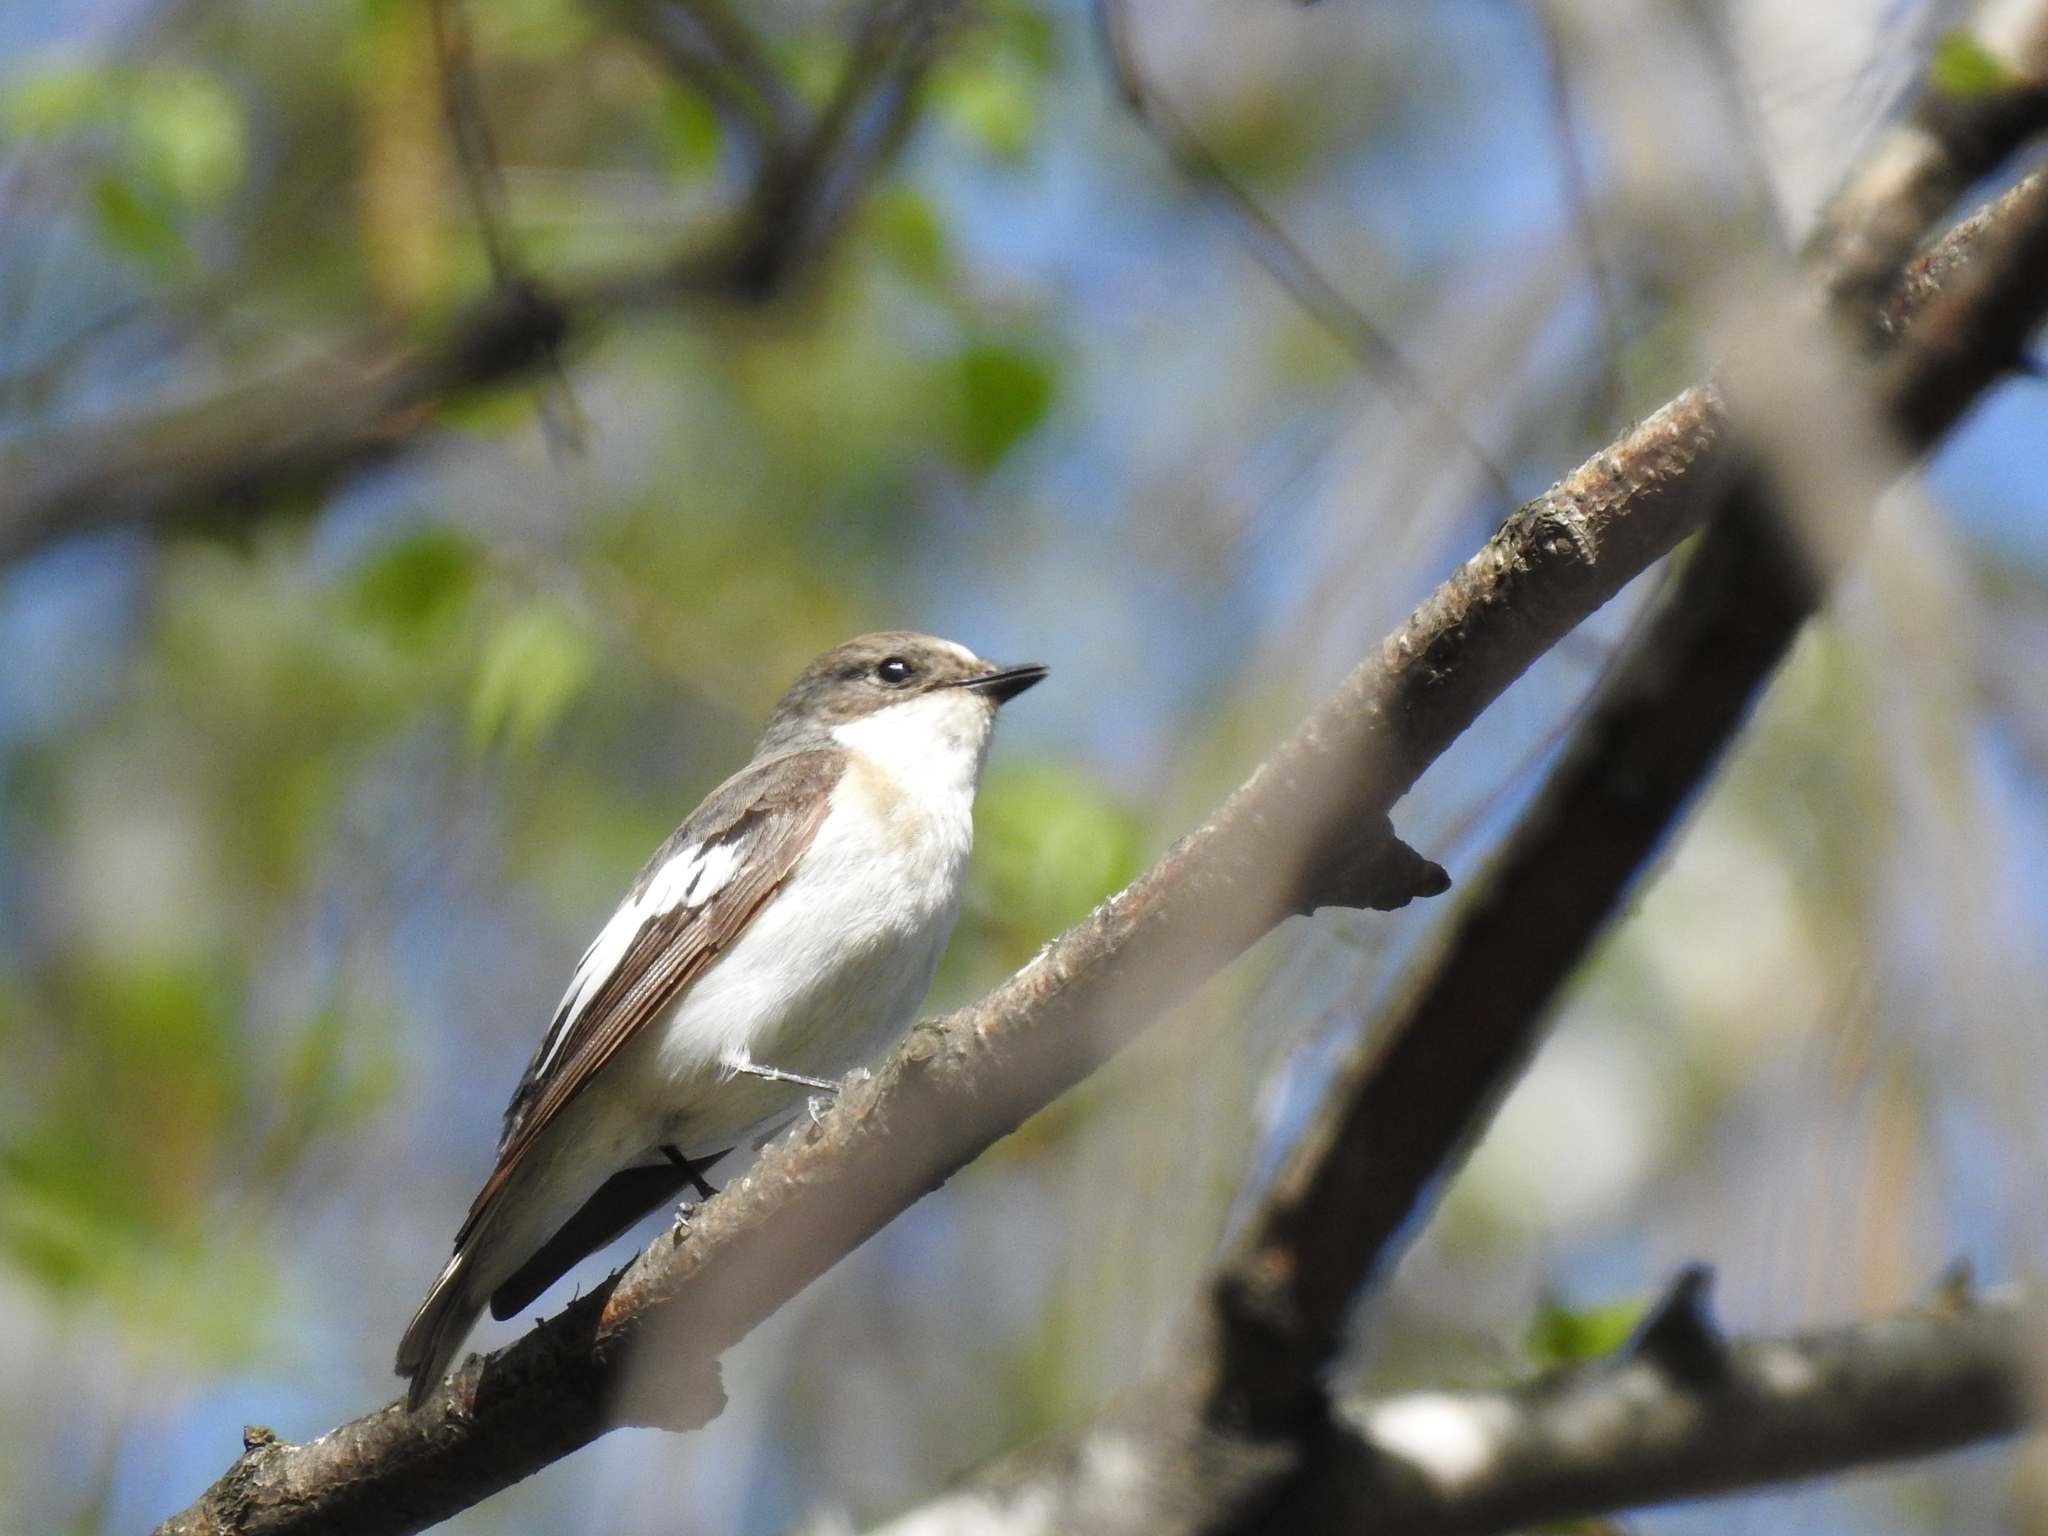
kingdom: Animalia
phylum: Chordata
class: Aves
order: Passeriformes
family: Muscicapidae
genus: Ficedula
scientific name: Ficedula hypoleuca
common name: European pied flycatcher
